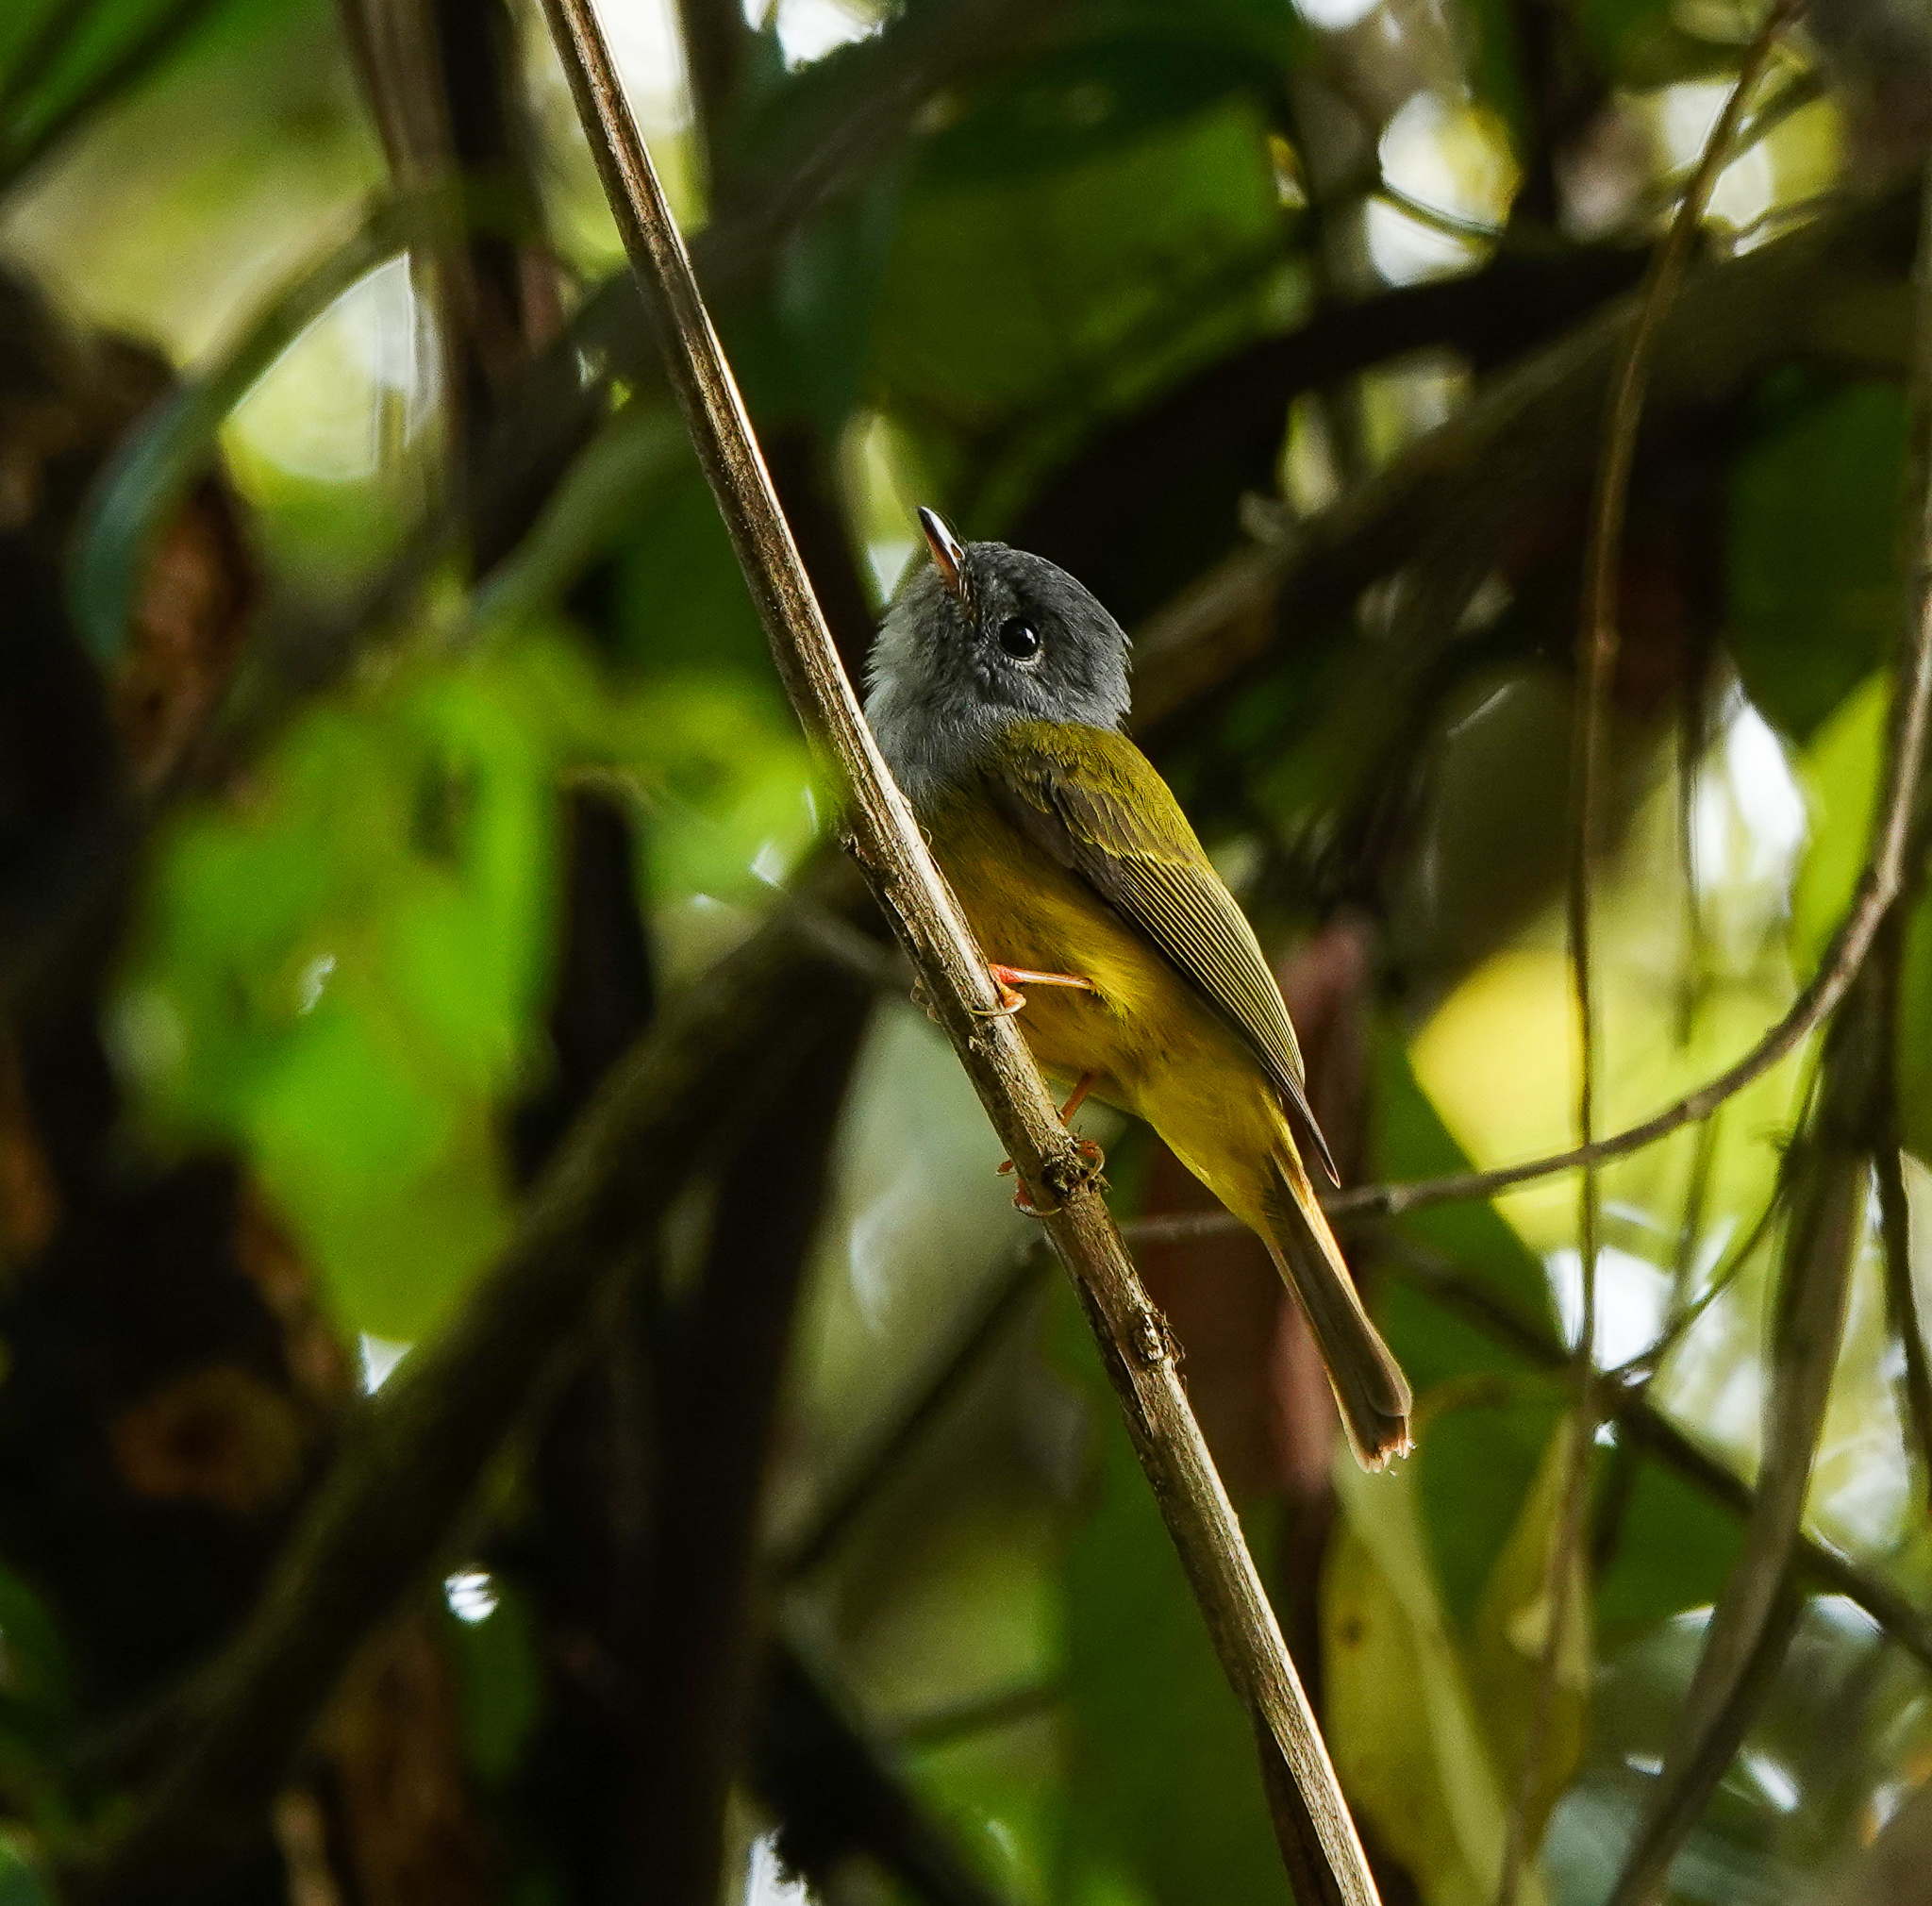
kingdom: Animalia
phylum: Chordata
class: Aves
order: Passeriformes
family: Stenostiridae
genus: Culicicapa
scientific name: Culicicapa ceylonensis
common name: Grey-headed canary-flycatcher
